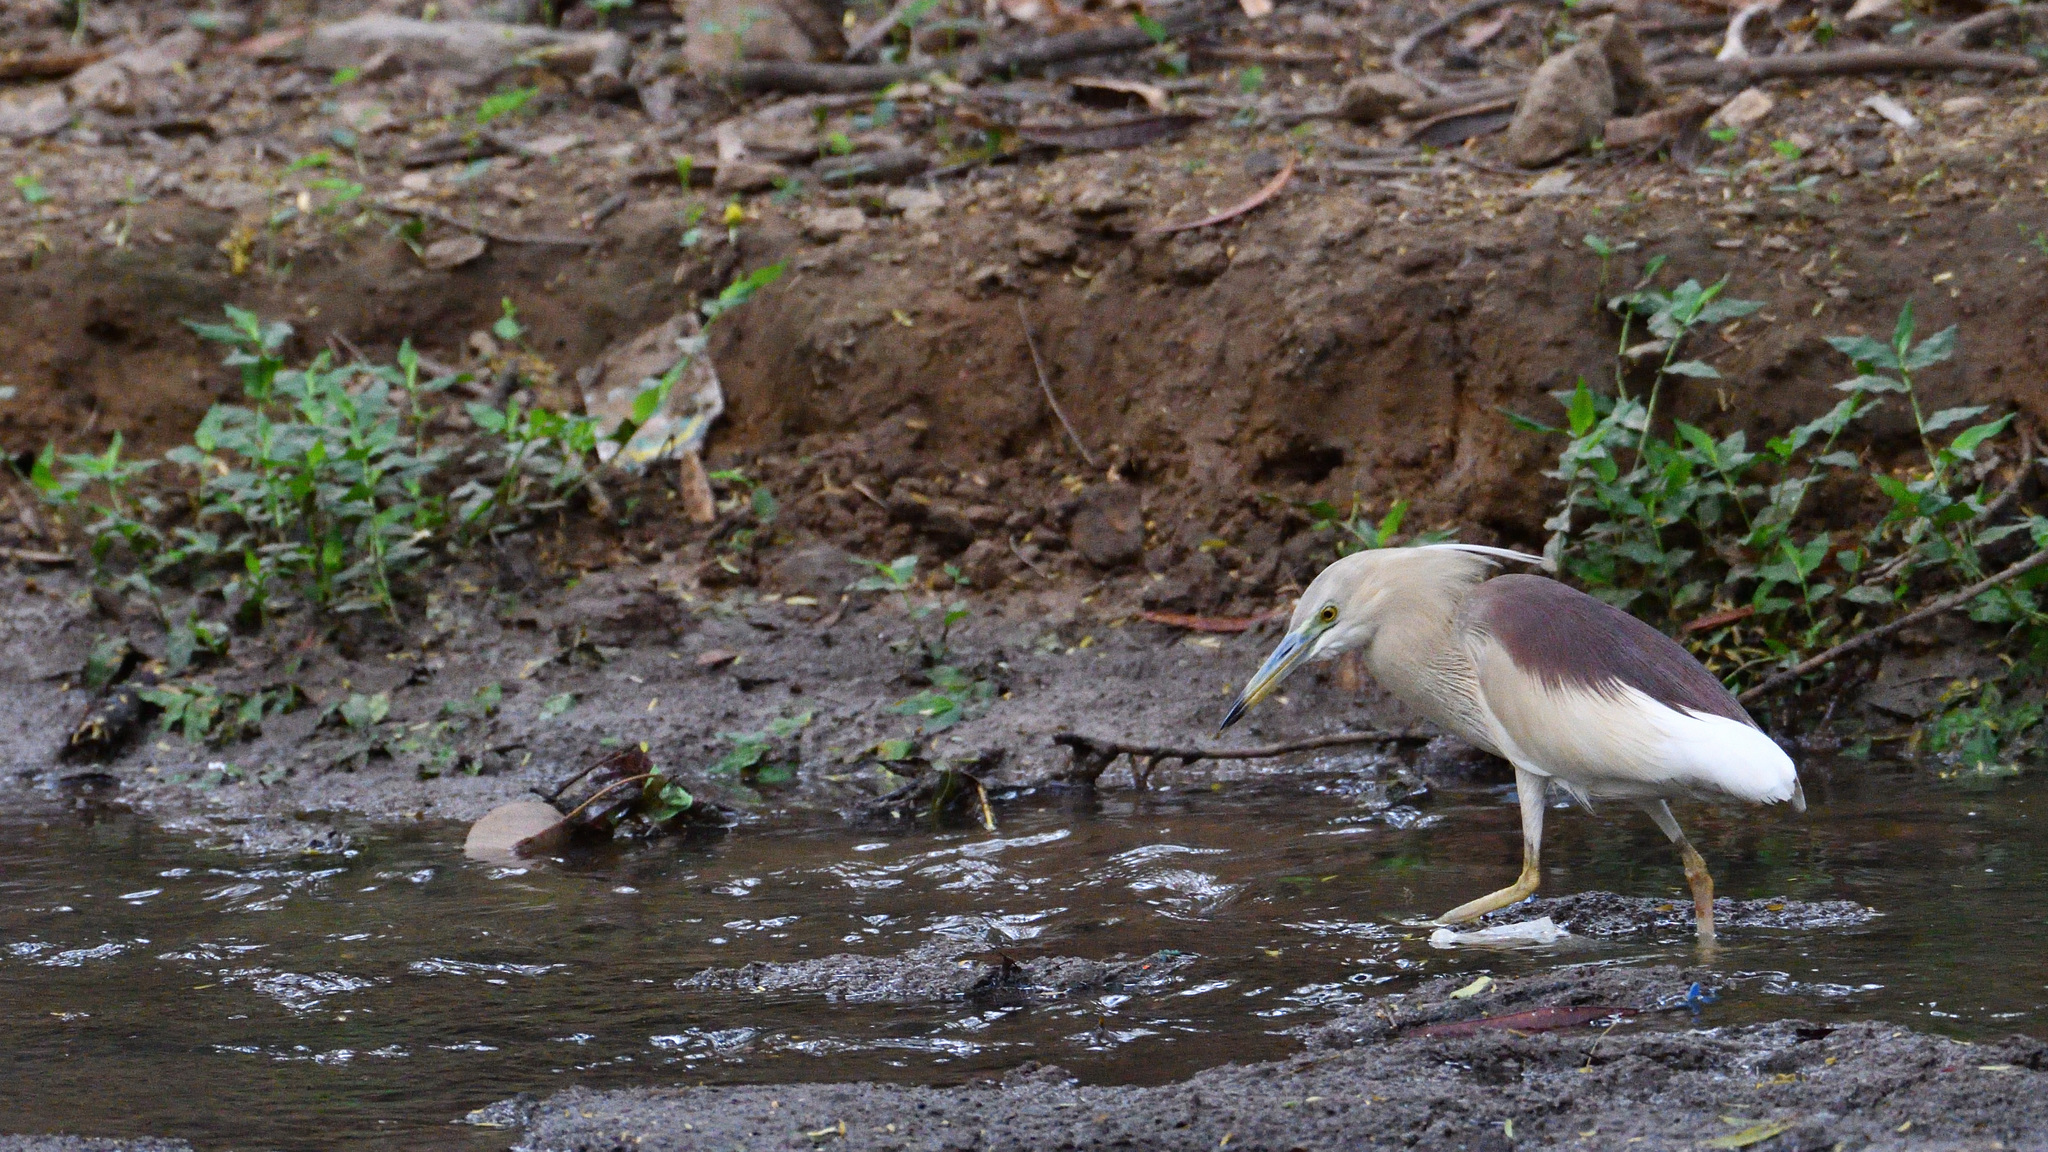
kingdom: Animalia
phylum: Chordata
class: Aves
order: Pelecaniformes
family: Ardeidae
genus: Ardeola
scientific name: Ardeola grayii
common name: Indian pond heron
